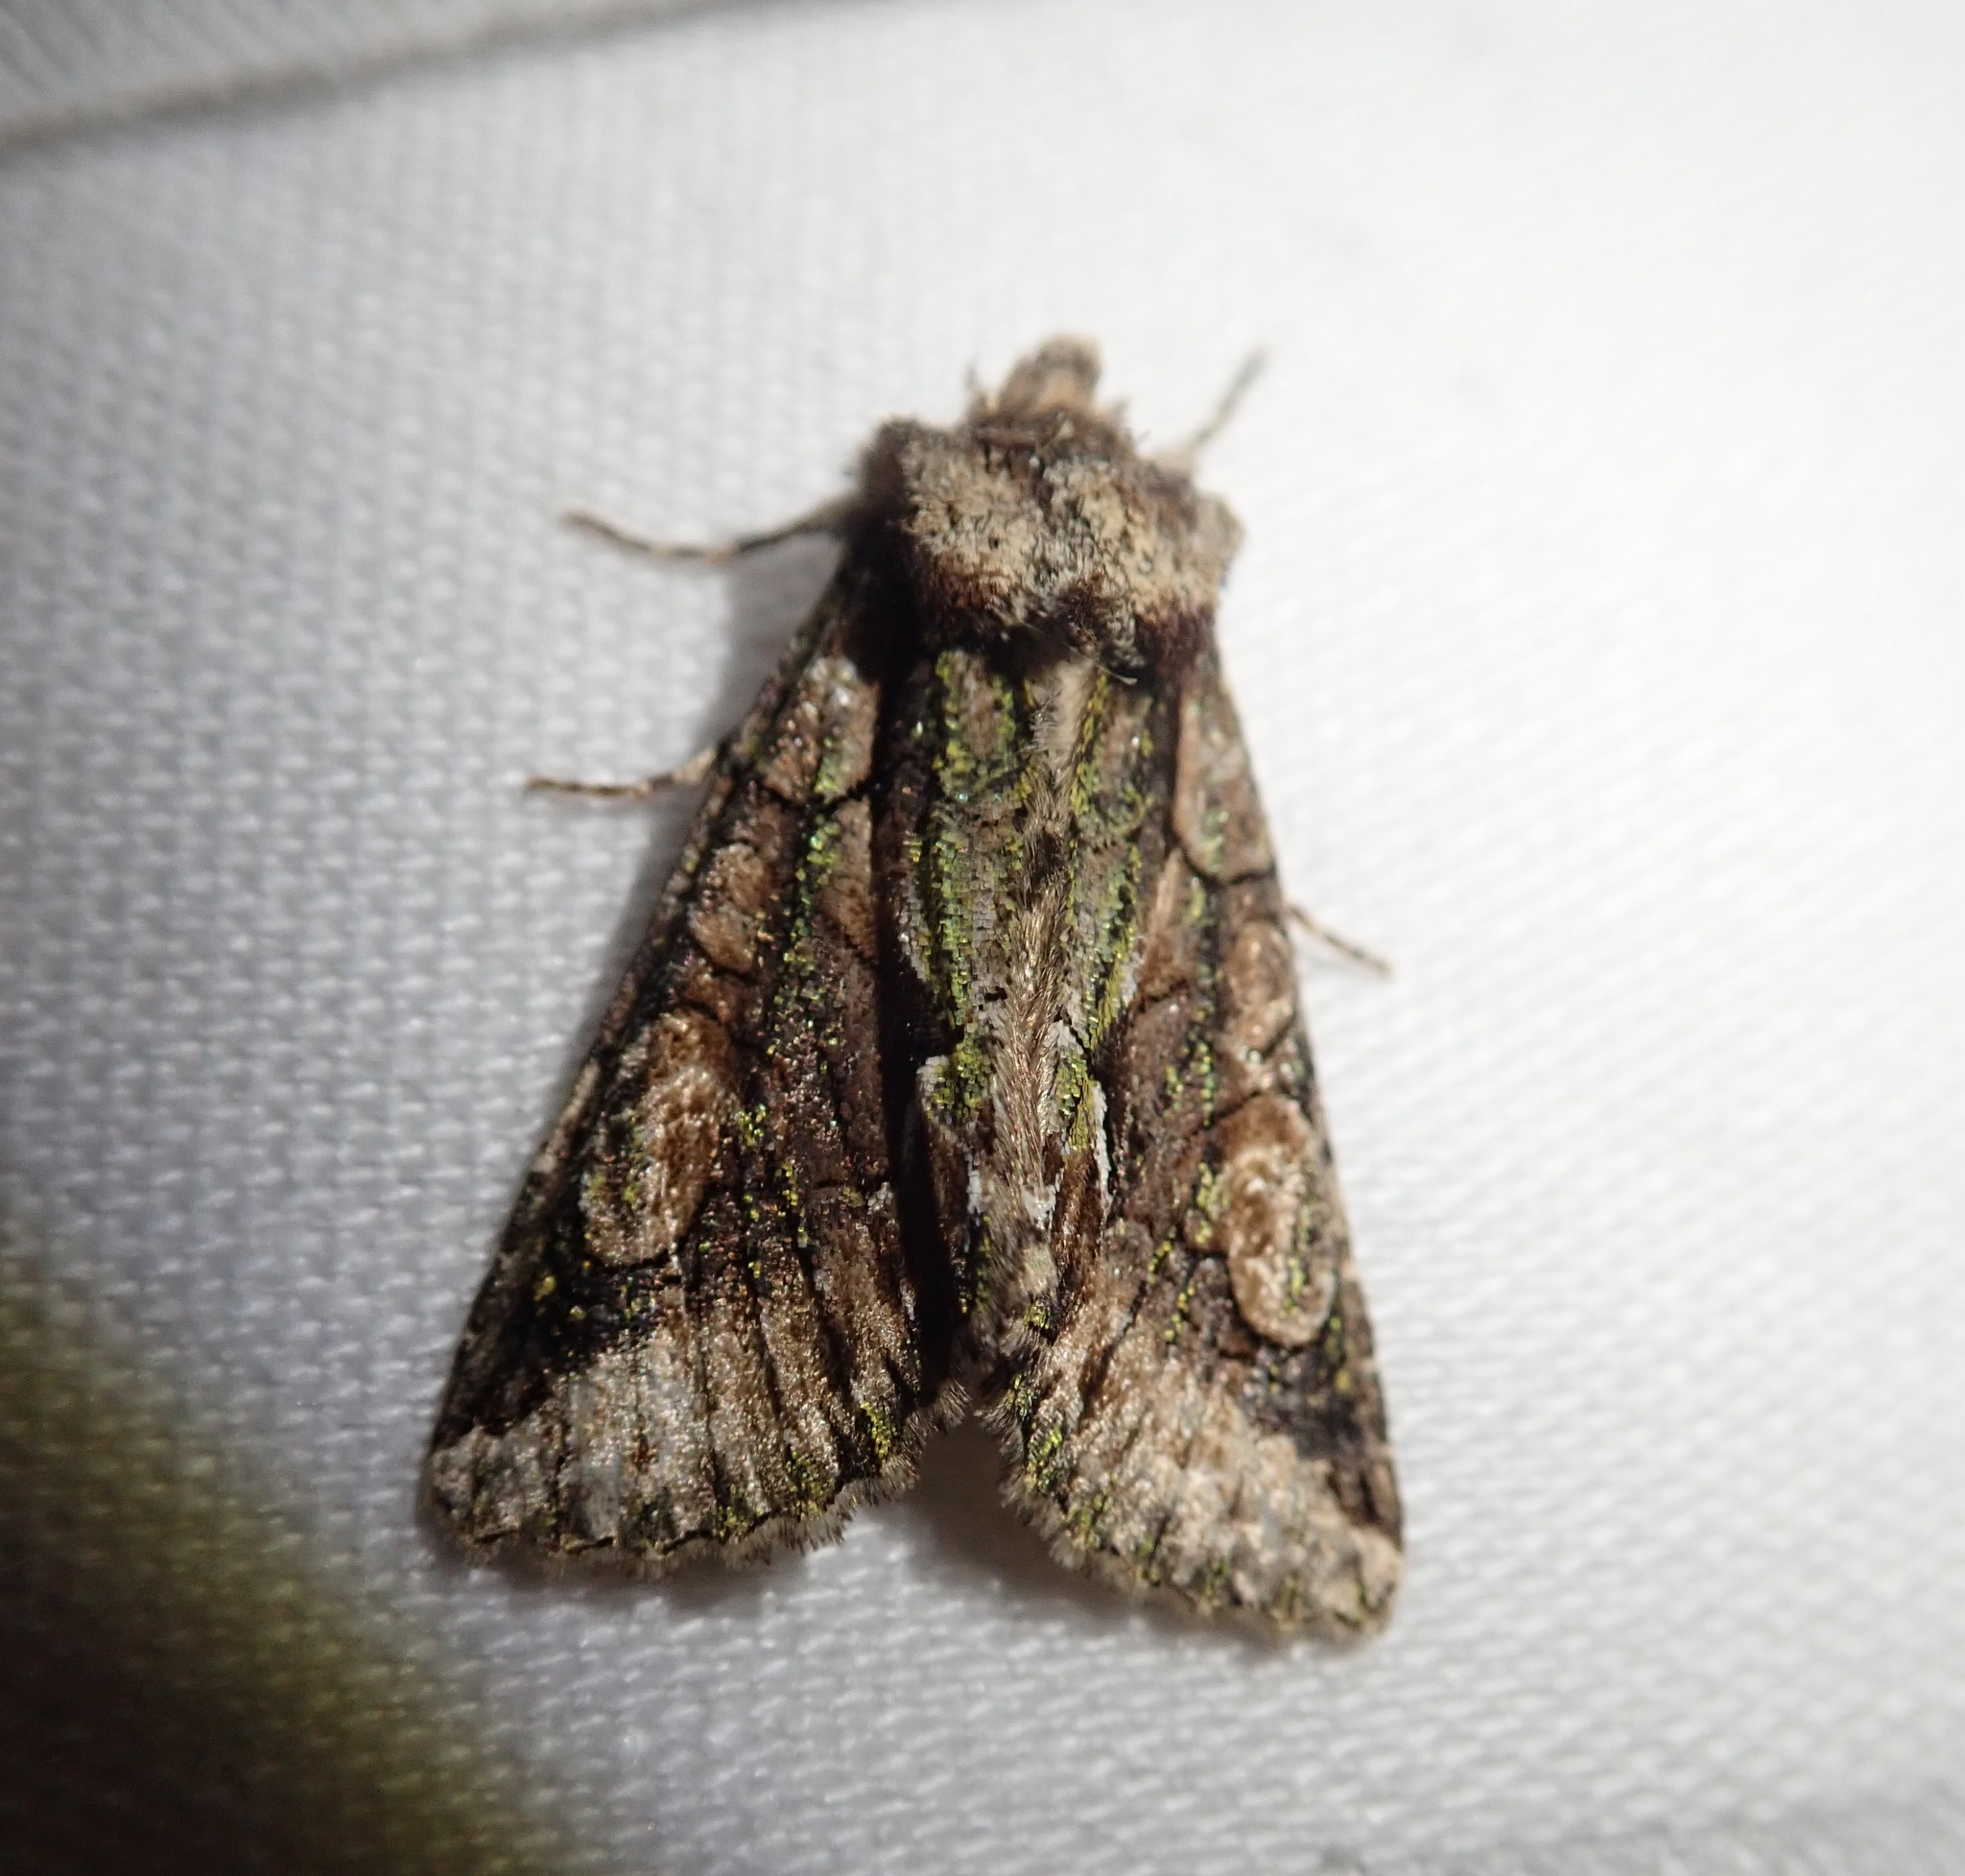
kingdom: Animalia
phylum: Arthropoda
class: Insecta
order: Lepidoptera
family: Noctuidae
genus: Allophyes
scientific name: Allophyes oxyacanthae
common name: Green-brindled crescent
